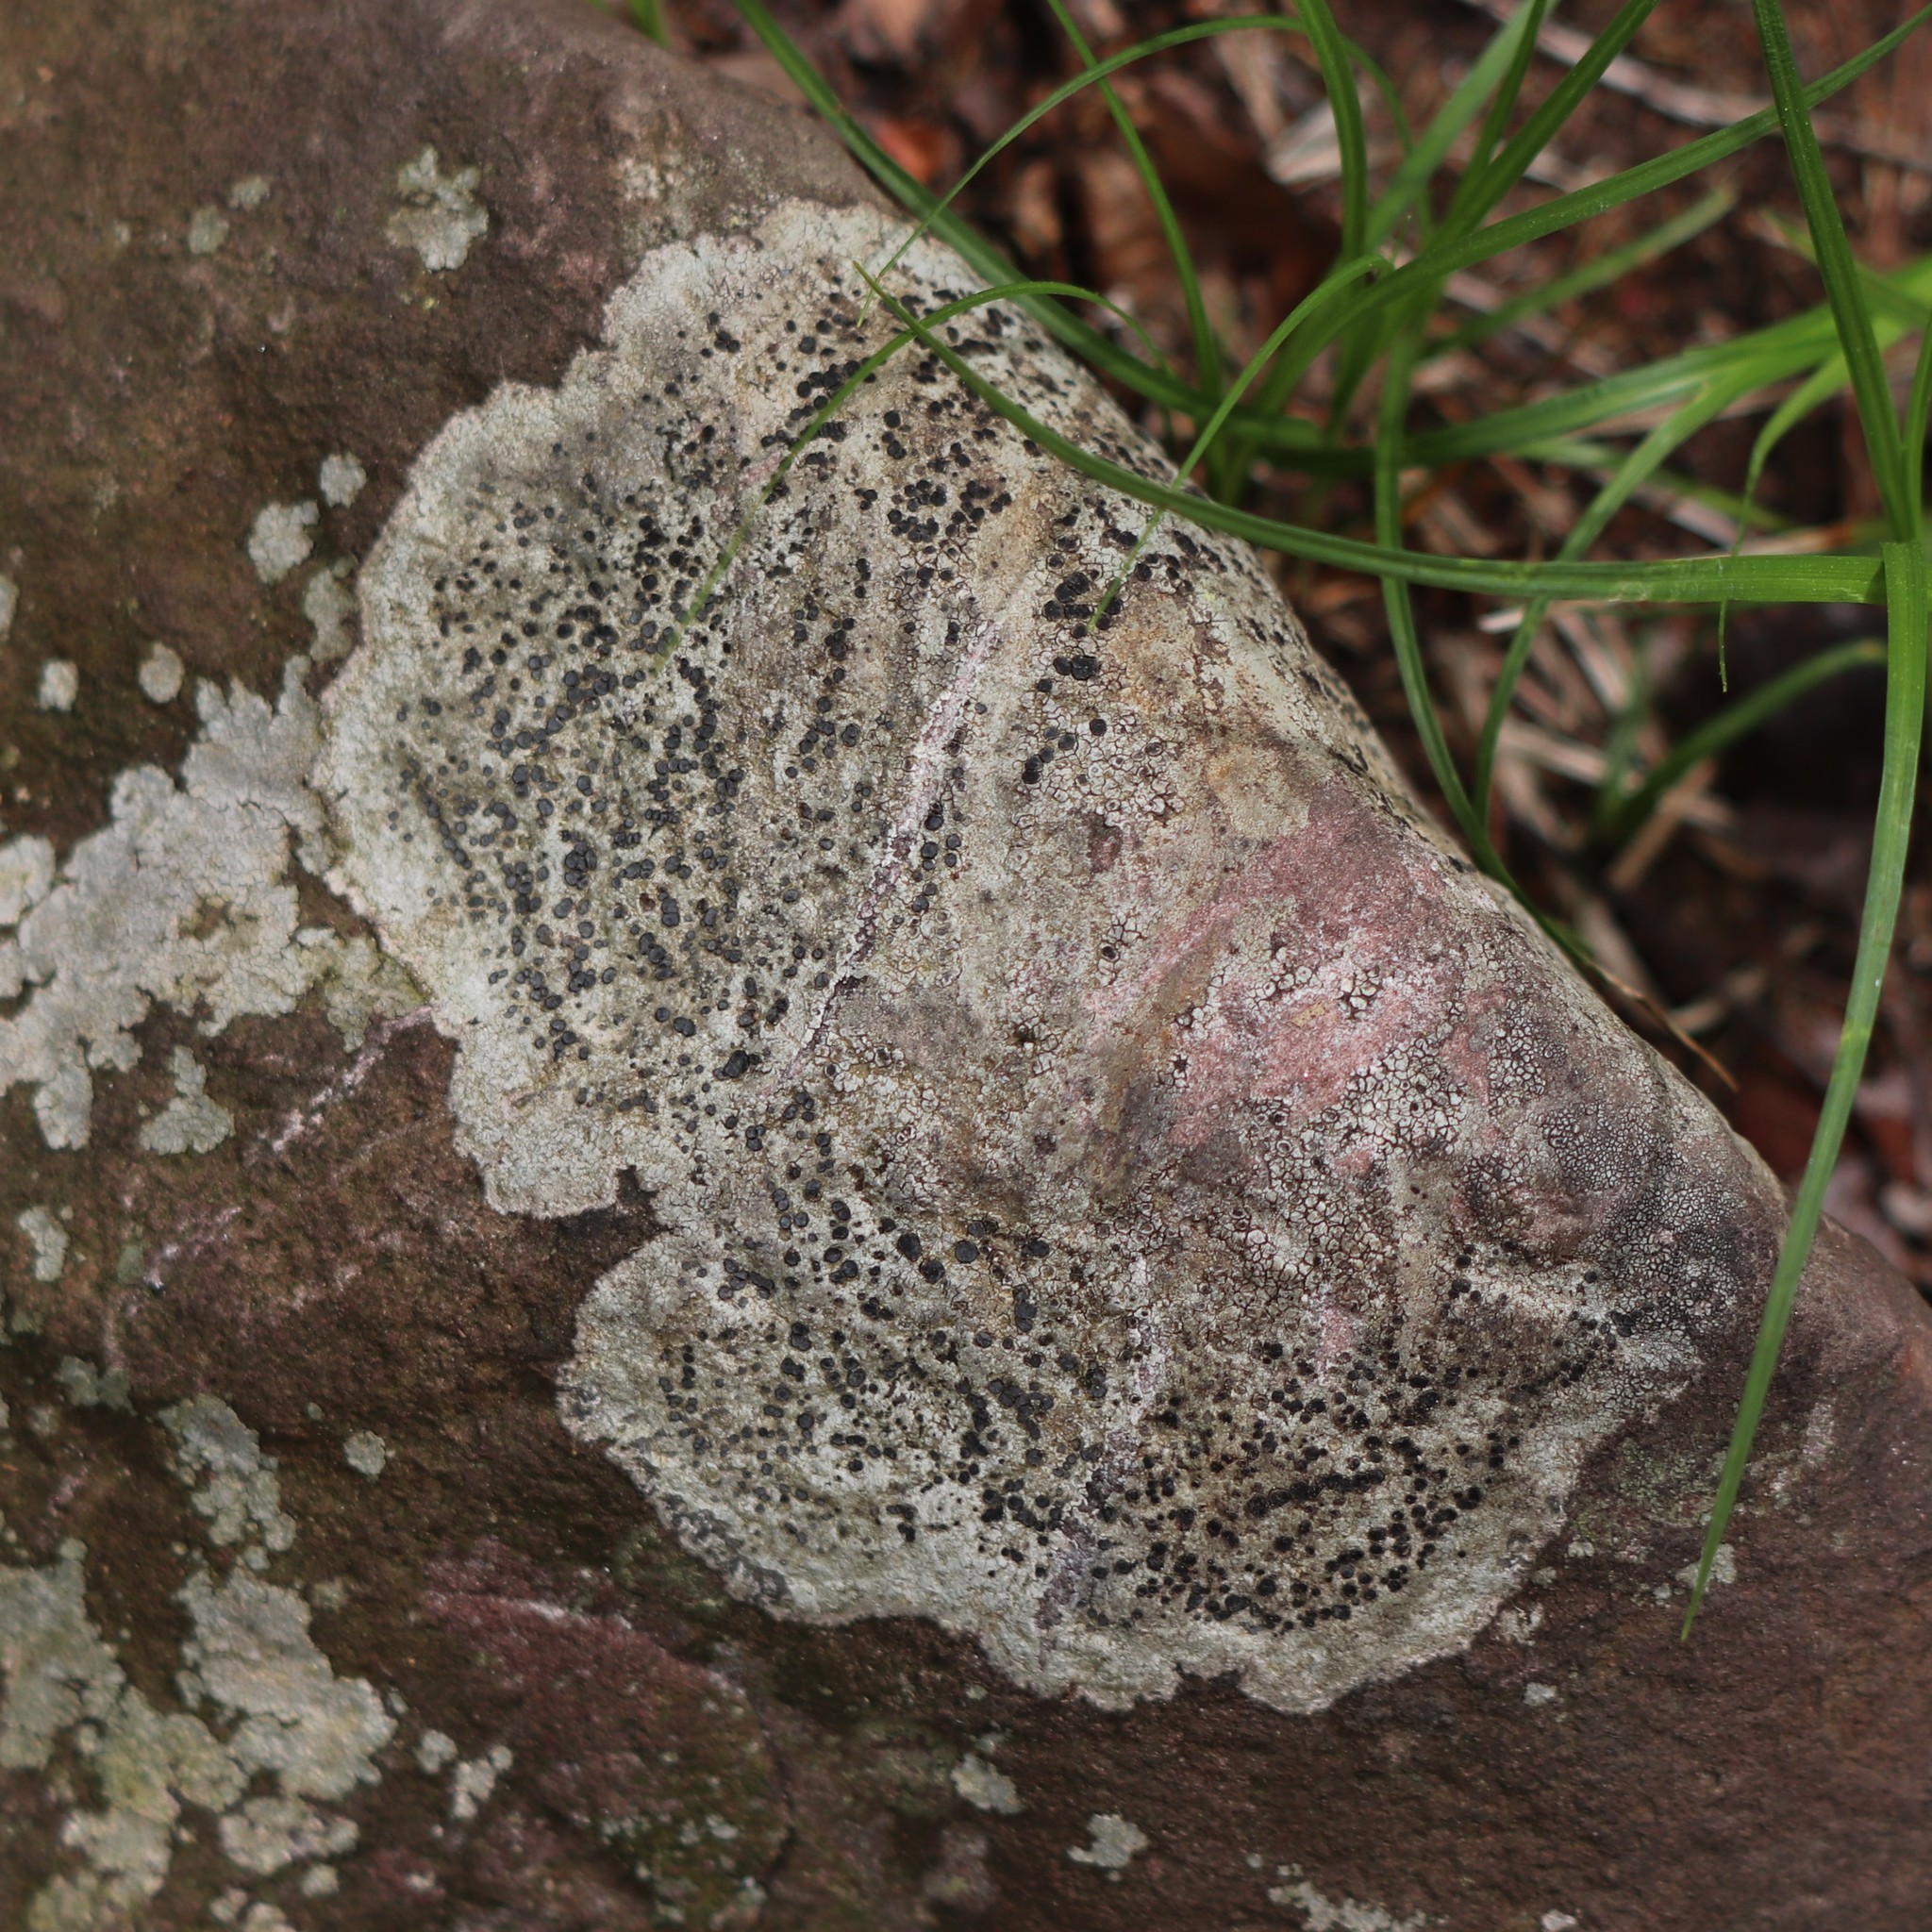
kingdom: Fungi
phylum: Ascomycota
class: Lecanoromycetes
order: Lecideales
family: Lecideaceae
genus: Porpidia
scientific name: Porpidia albocaerulescens
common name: Smokey-eyed boulder lichen
